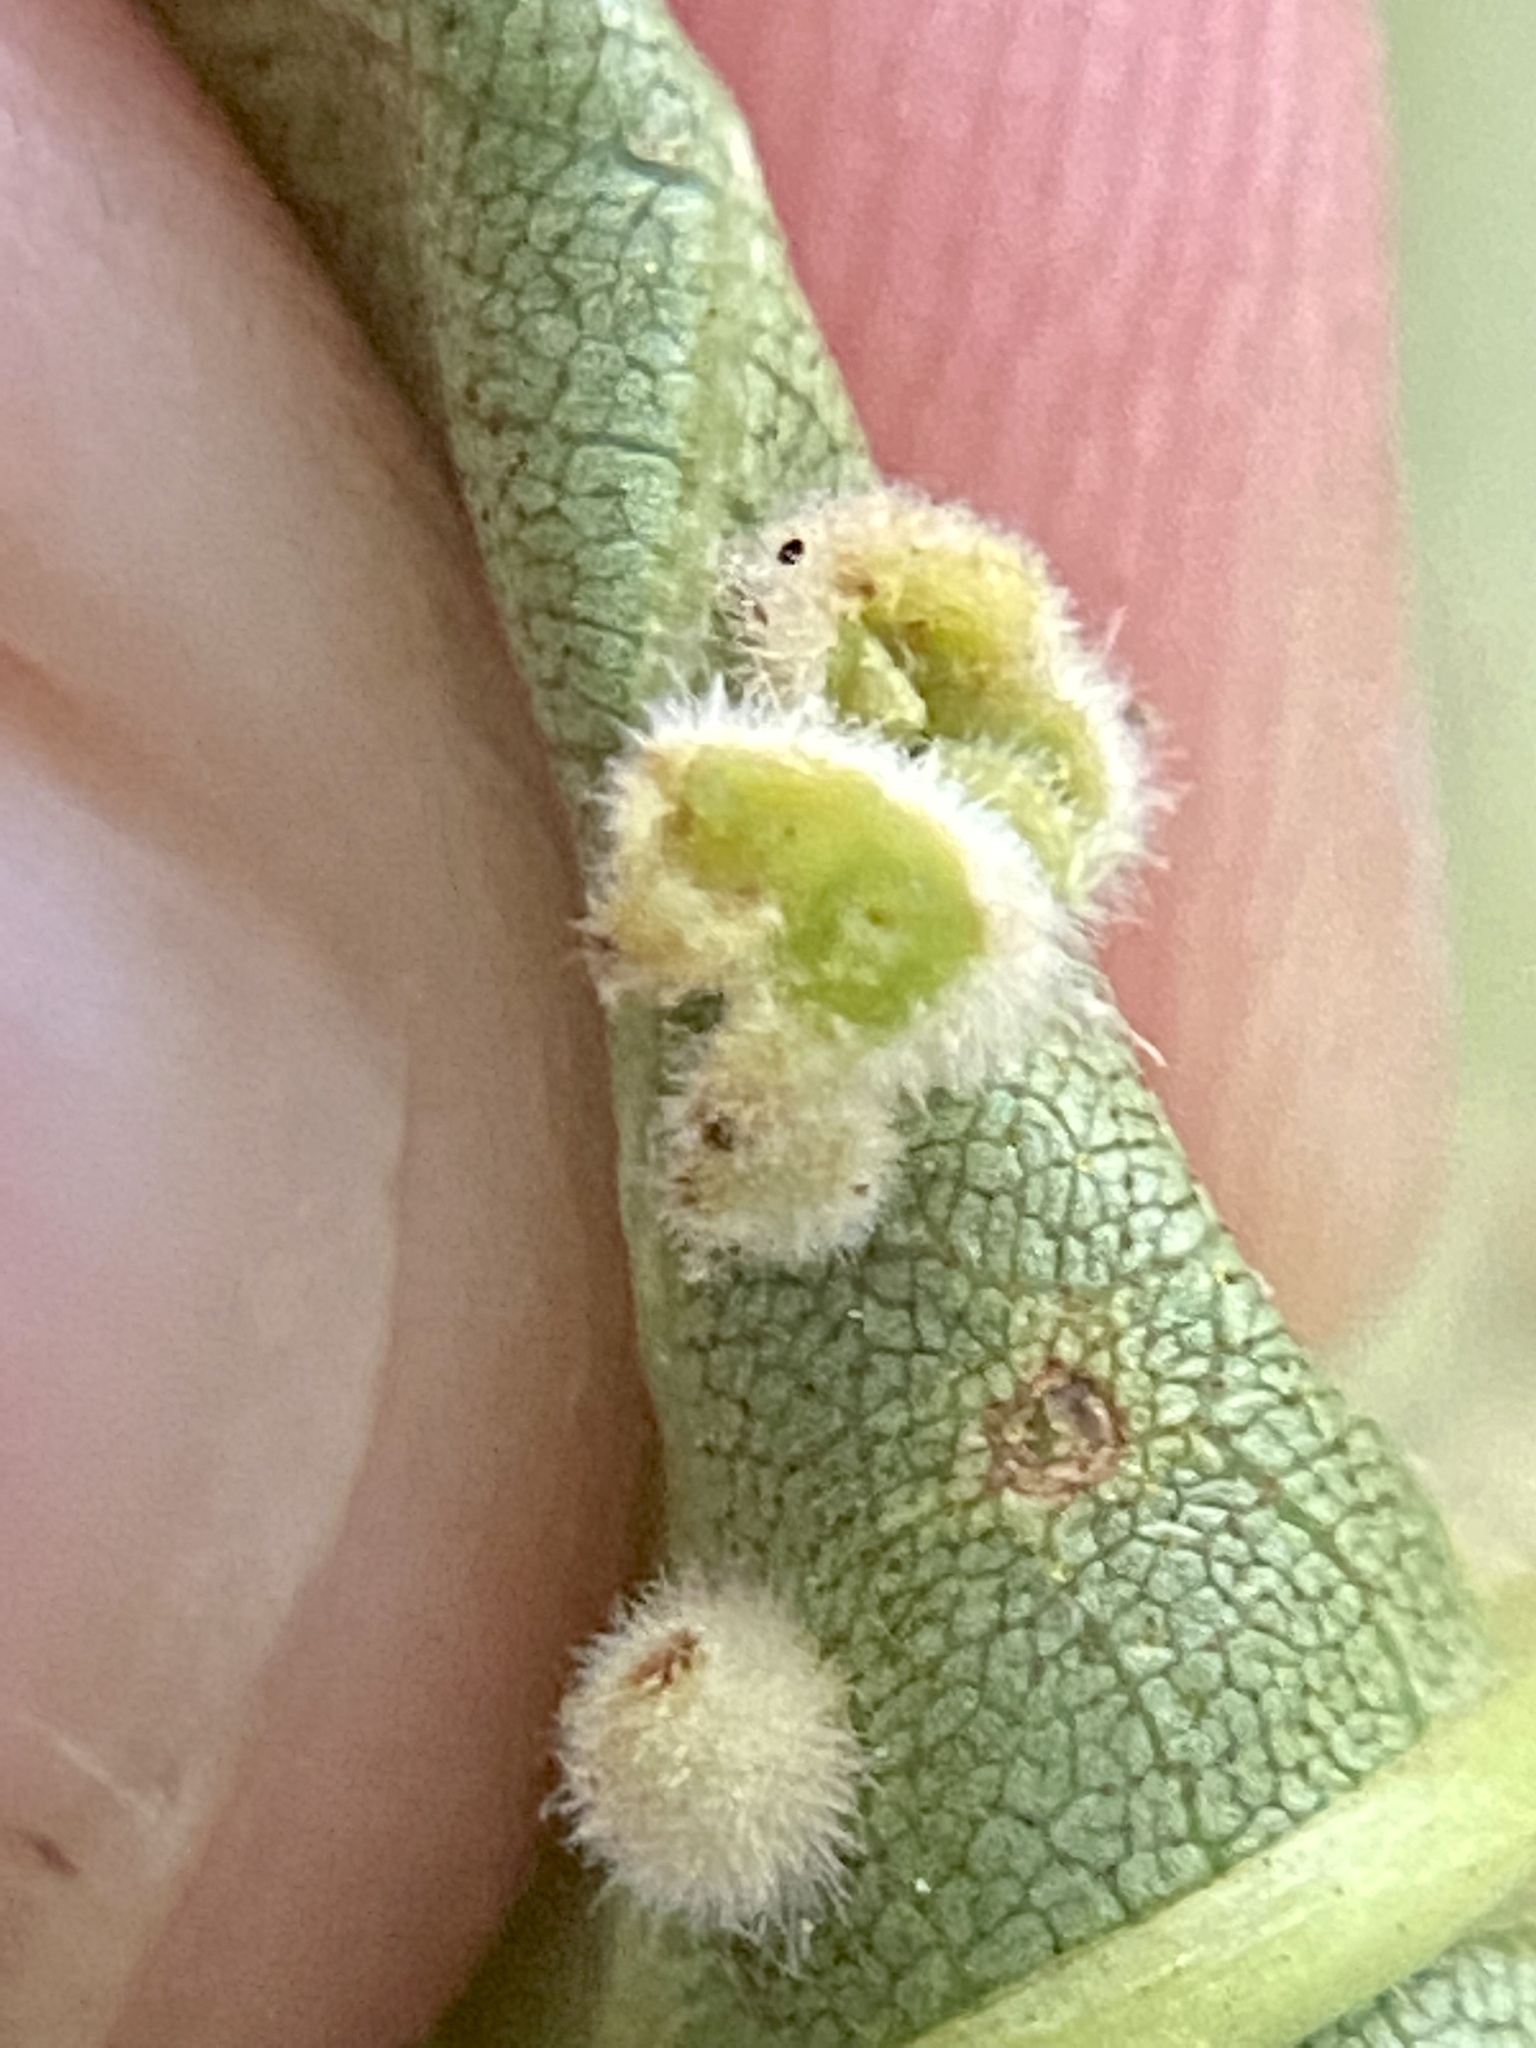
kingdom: Animalia
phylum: Arthropoda
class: Insecta
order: Diptera
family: Cecidomyiidae
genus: Caryomyia
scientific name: Caryomyia holotricha
